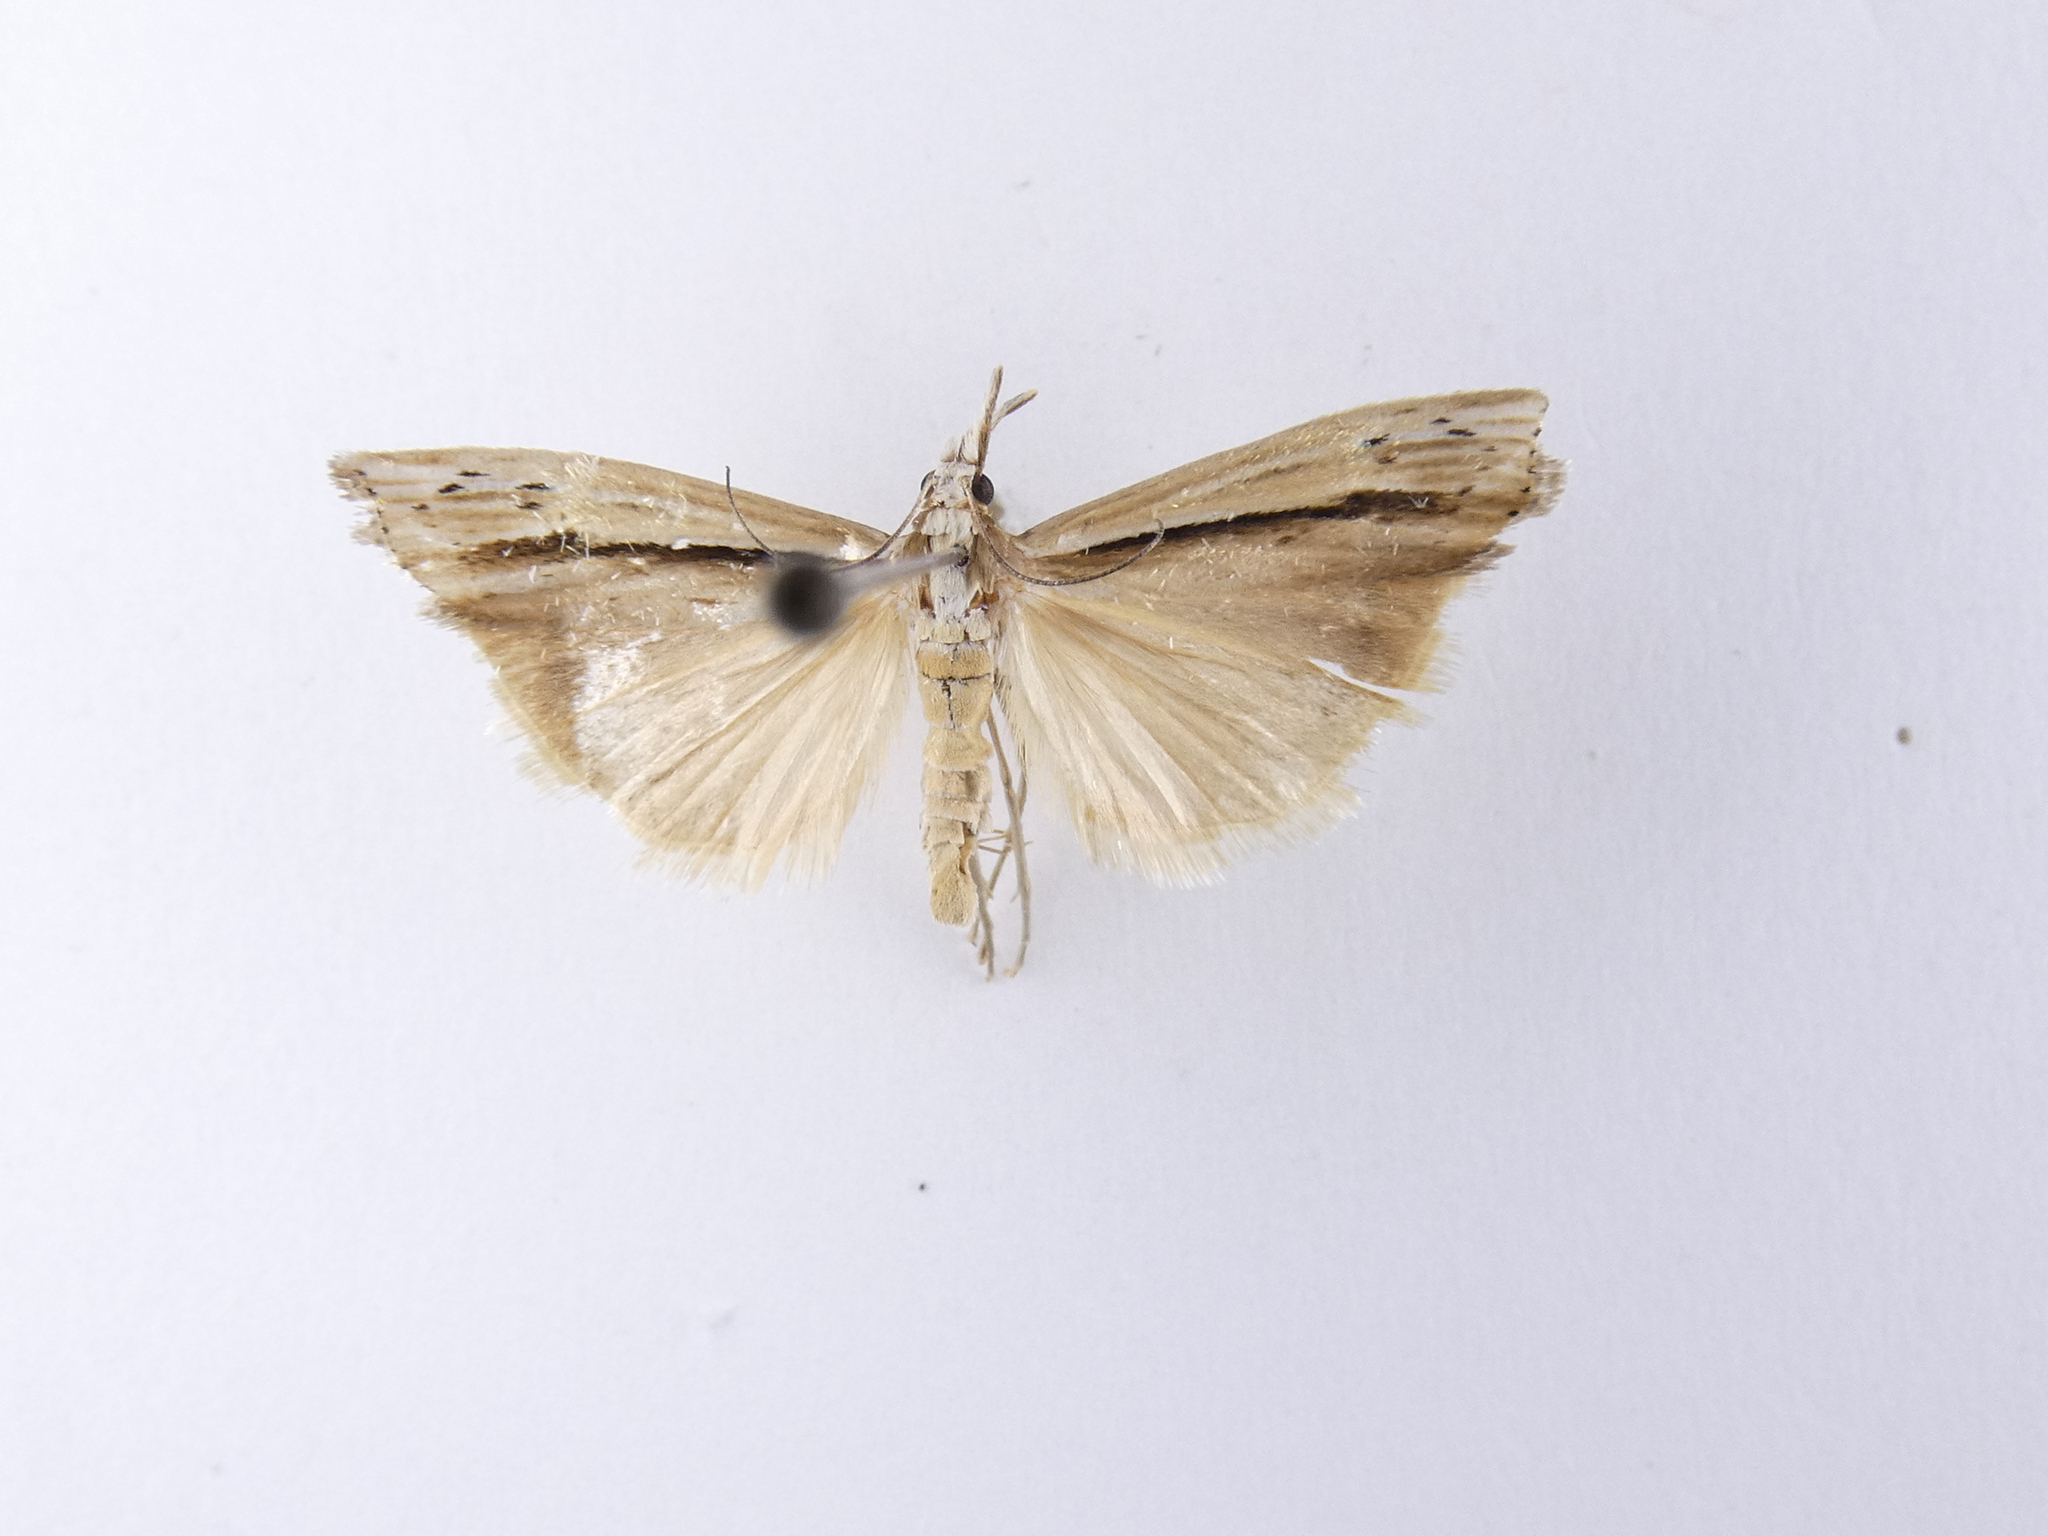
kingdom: Animalia
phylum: Arthropoda
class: Insecta
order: Lepidoptera
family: Crambidae
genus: Orocrambus
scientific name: Orocrambus ramosellus
